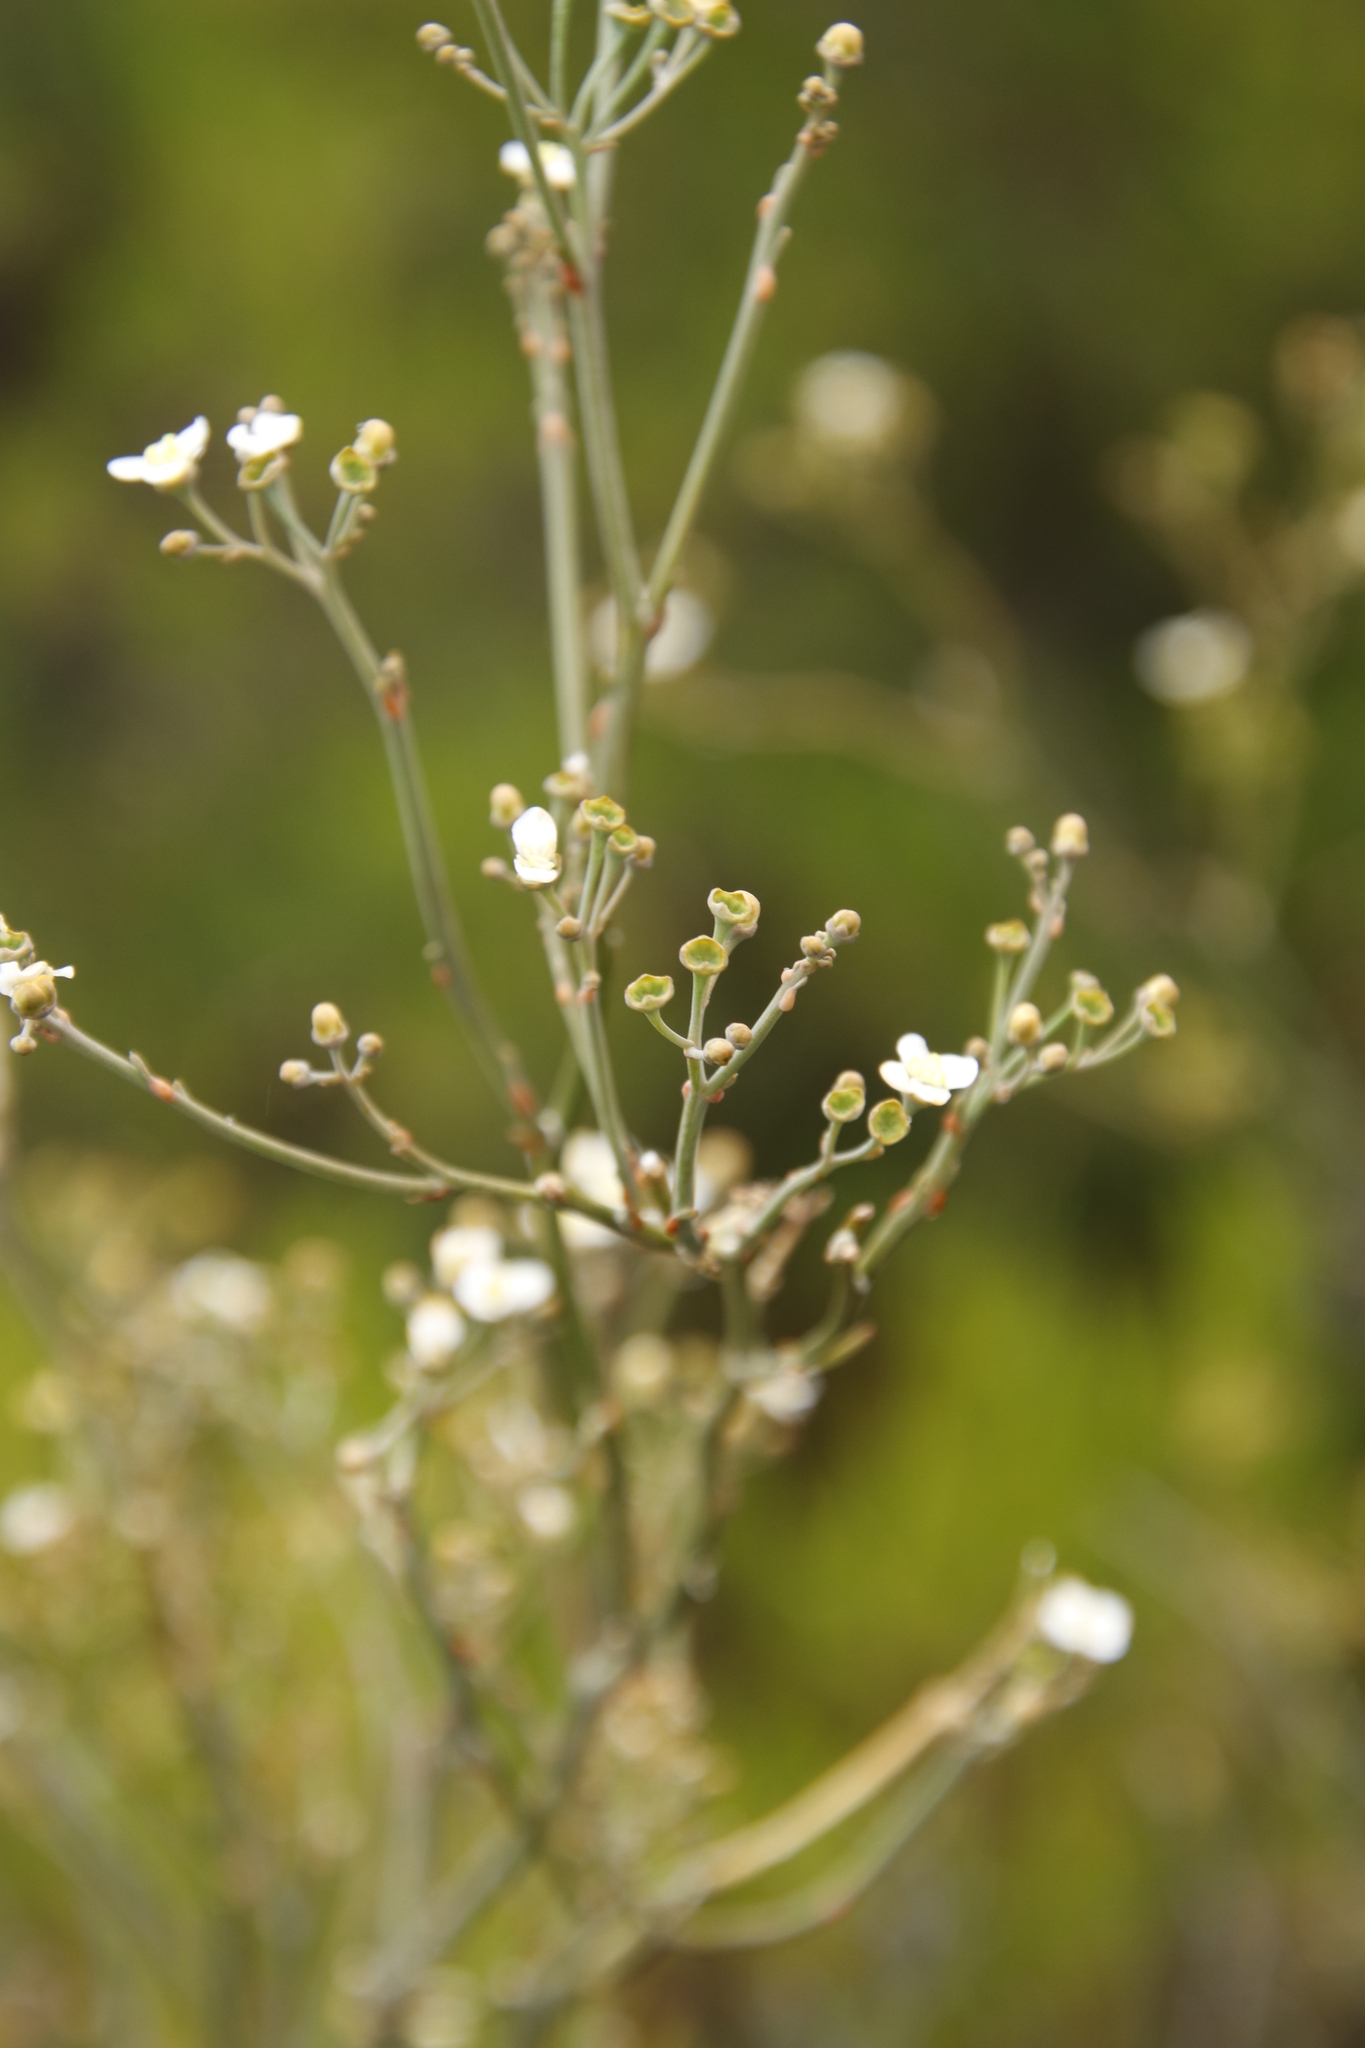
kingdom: Plantae
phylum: Tracheophyta
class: Magnoliopsida
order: Solanales
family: Montiniaceae
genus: Montinia
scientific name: Montinia caryophyllacea
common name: Wild clove-bush
